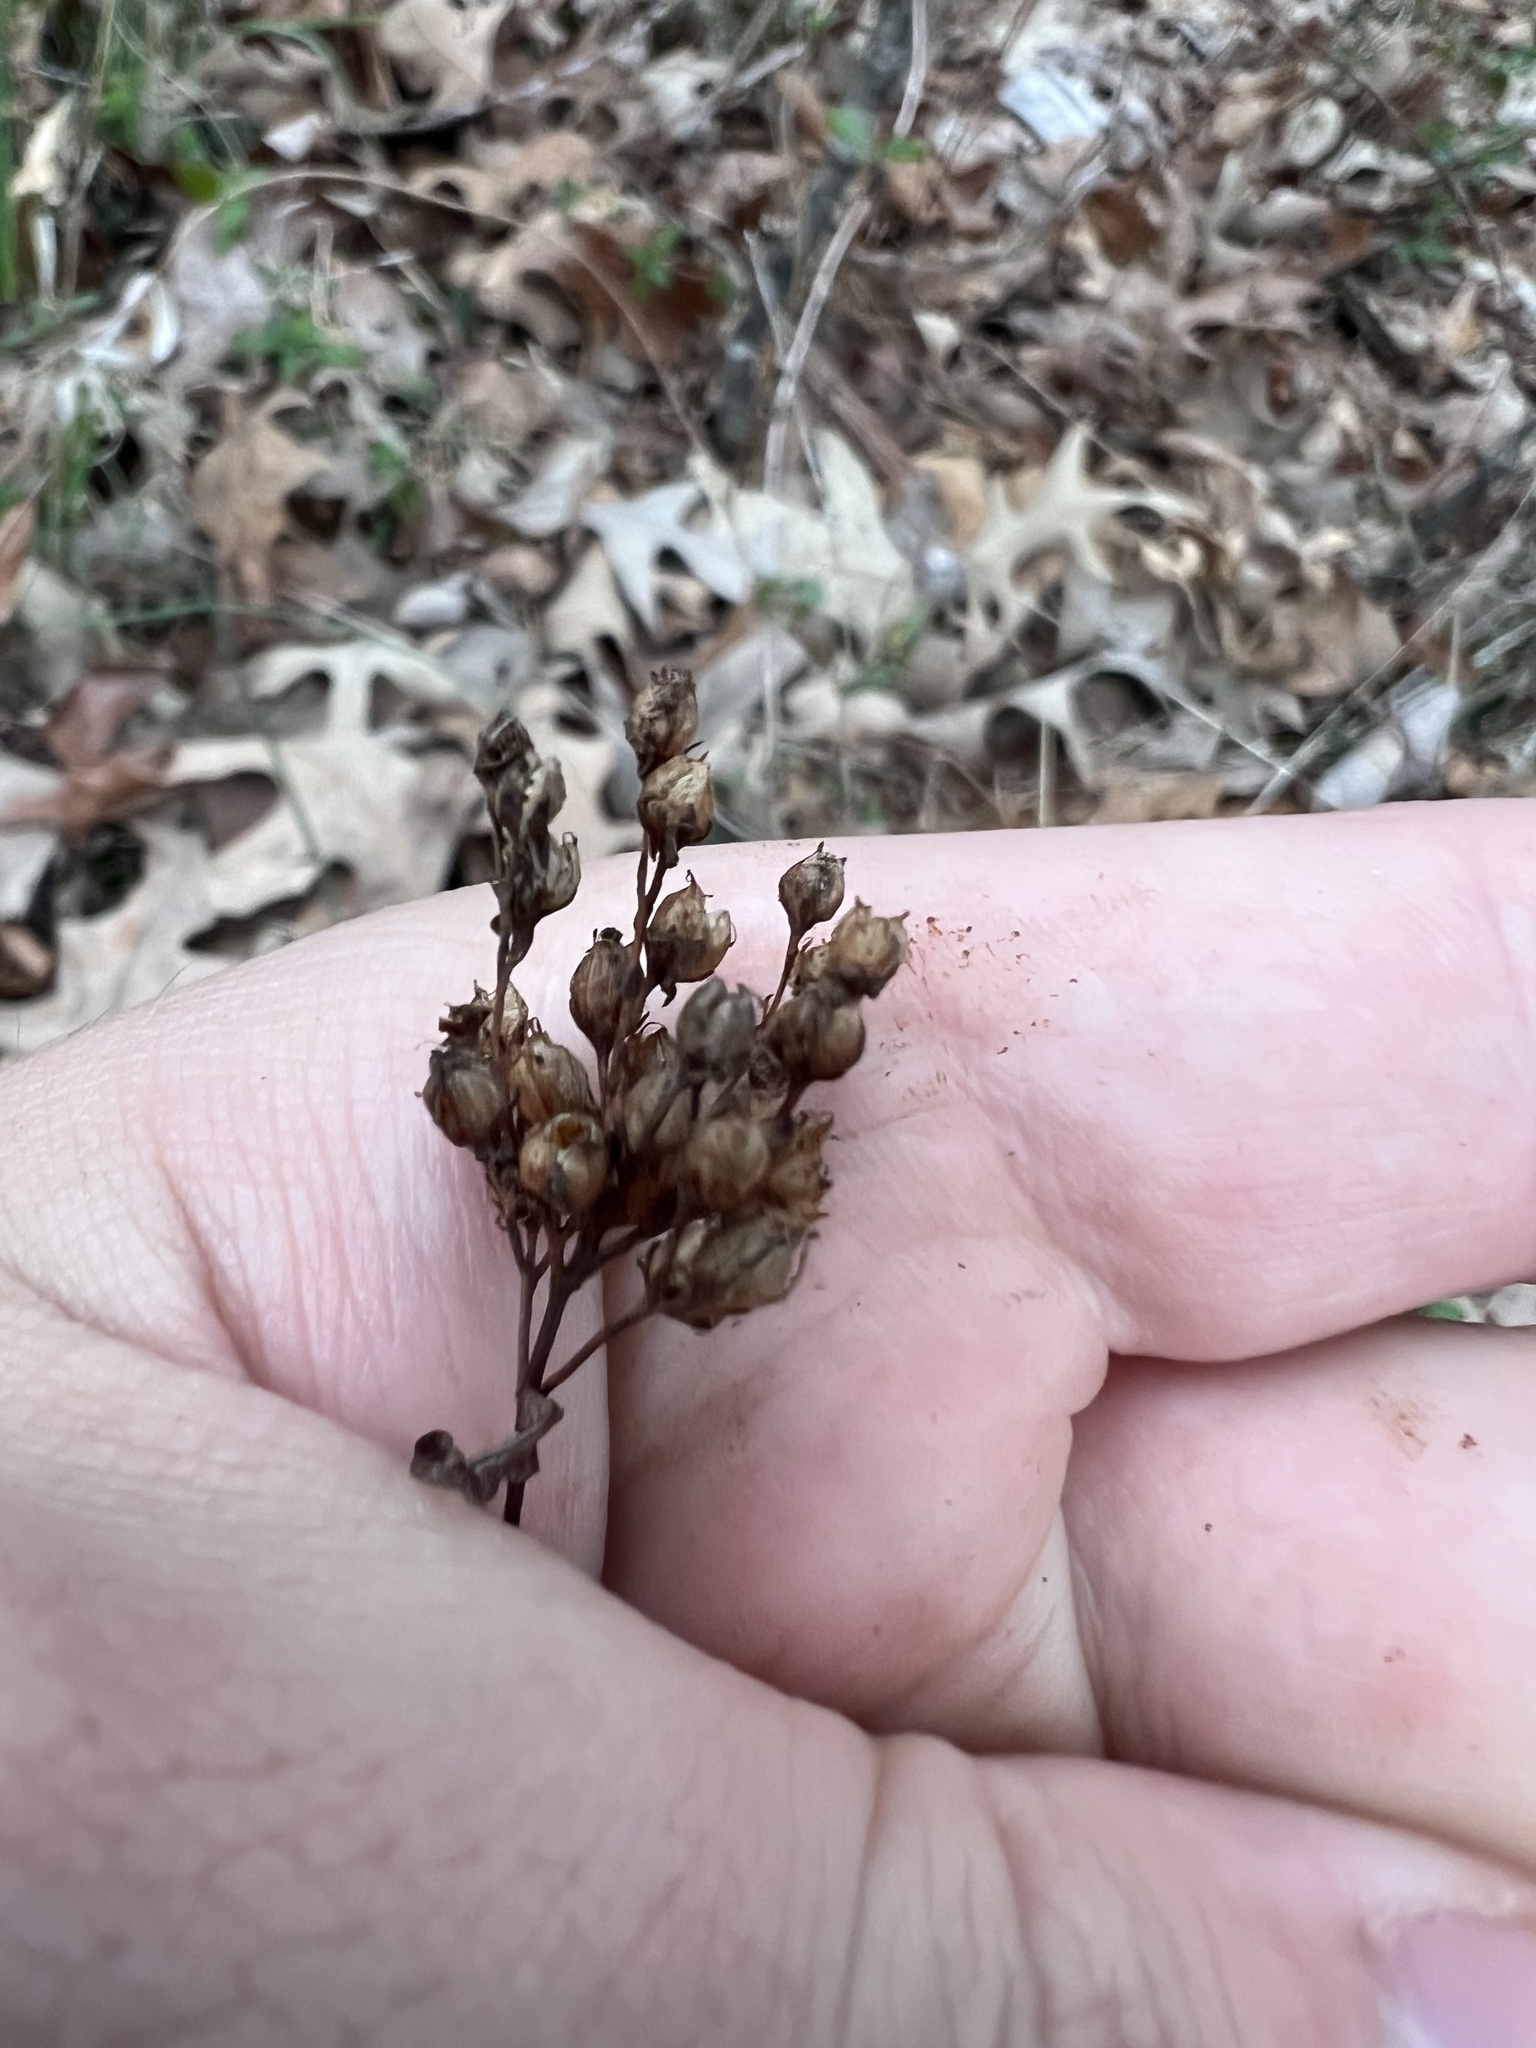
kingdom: Plantae
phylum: Tracheophyta
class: Magnoliopsida
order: Malpighiales
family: Hypericaceae
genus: Hypericum
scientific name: Hypericum punctatum
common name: Spotted st. john's-wort
